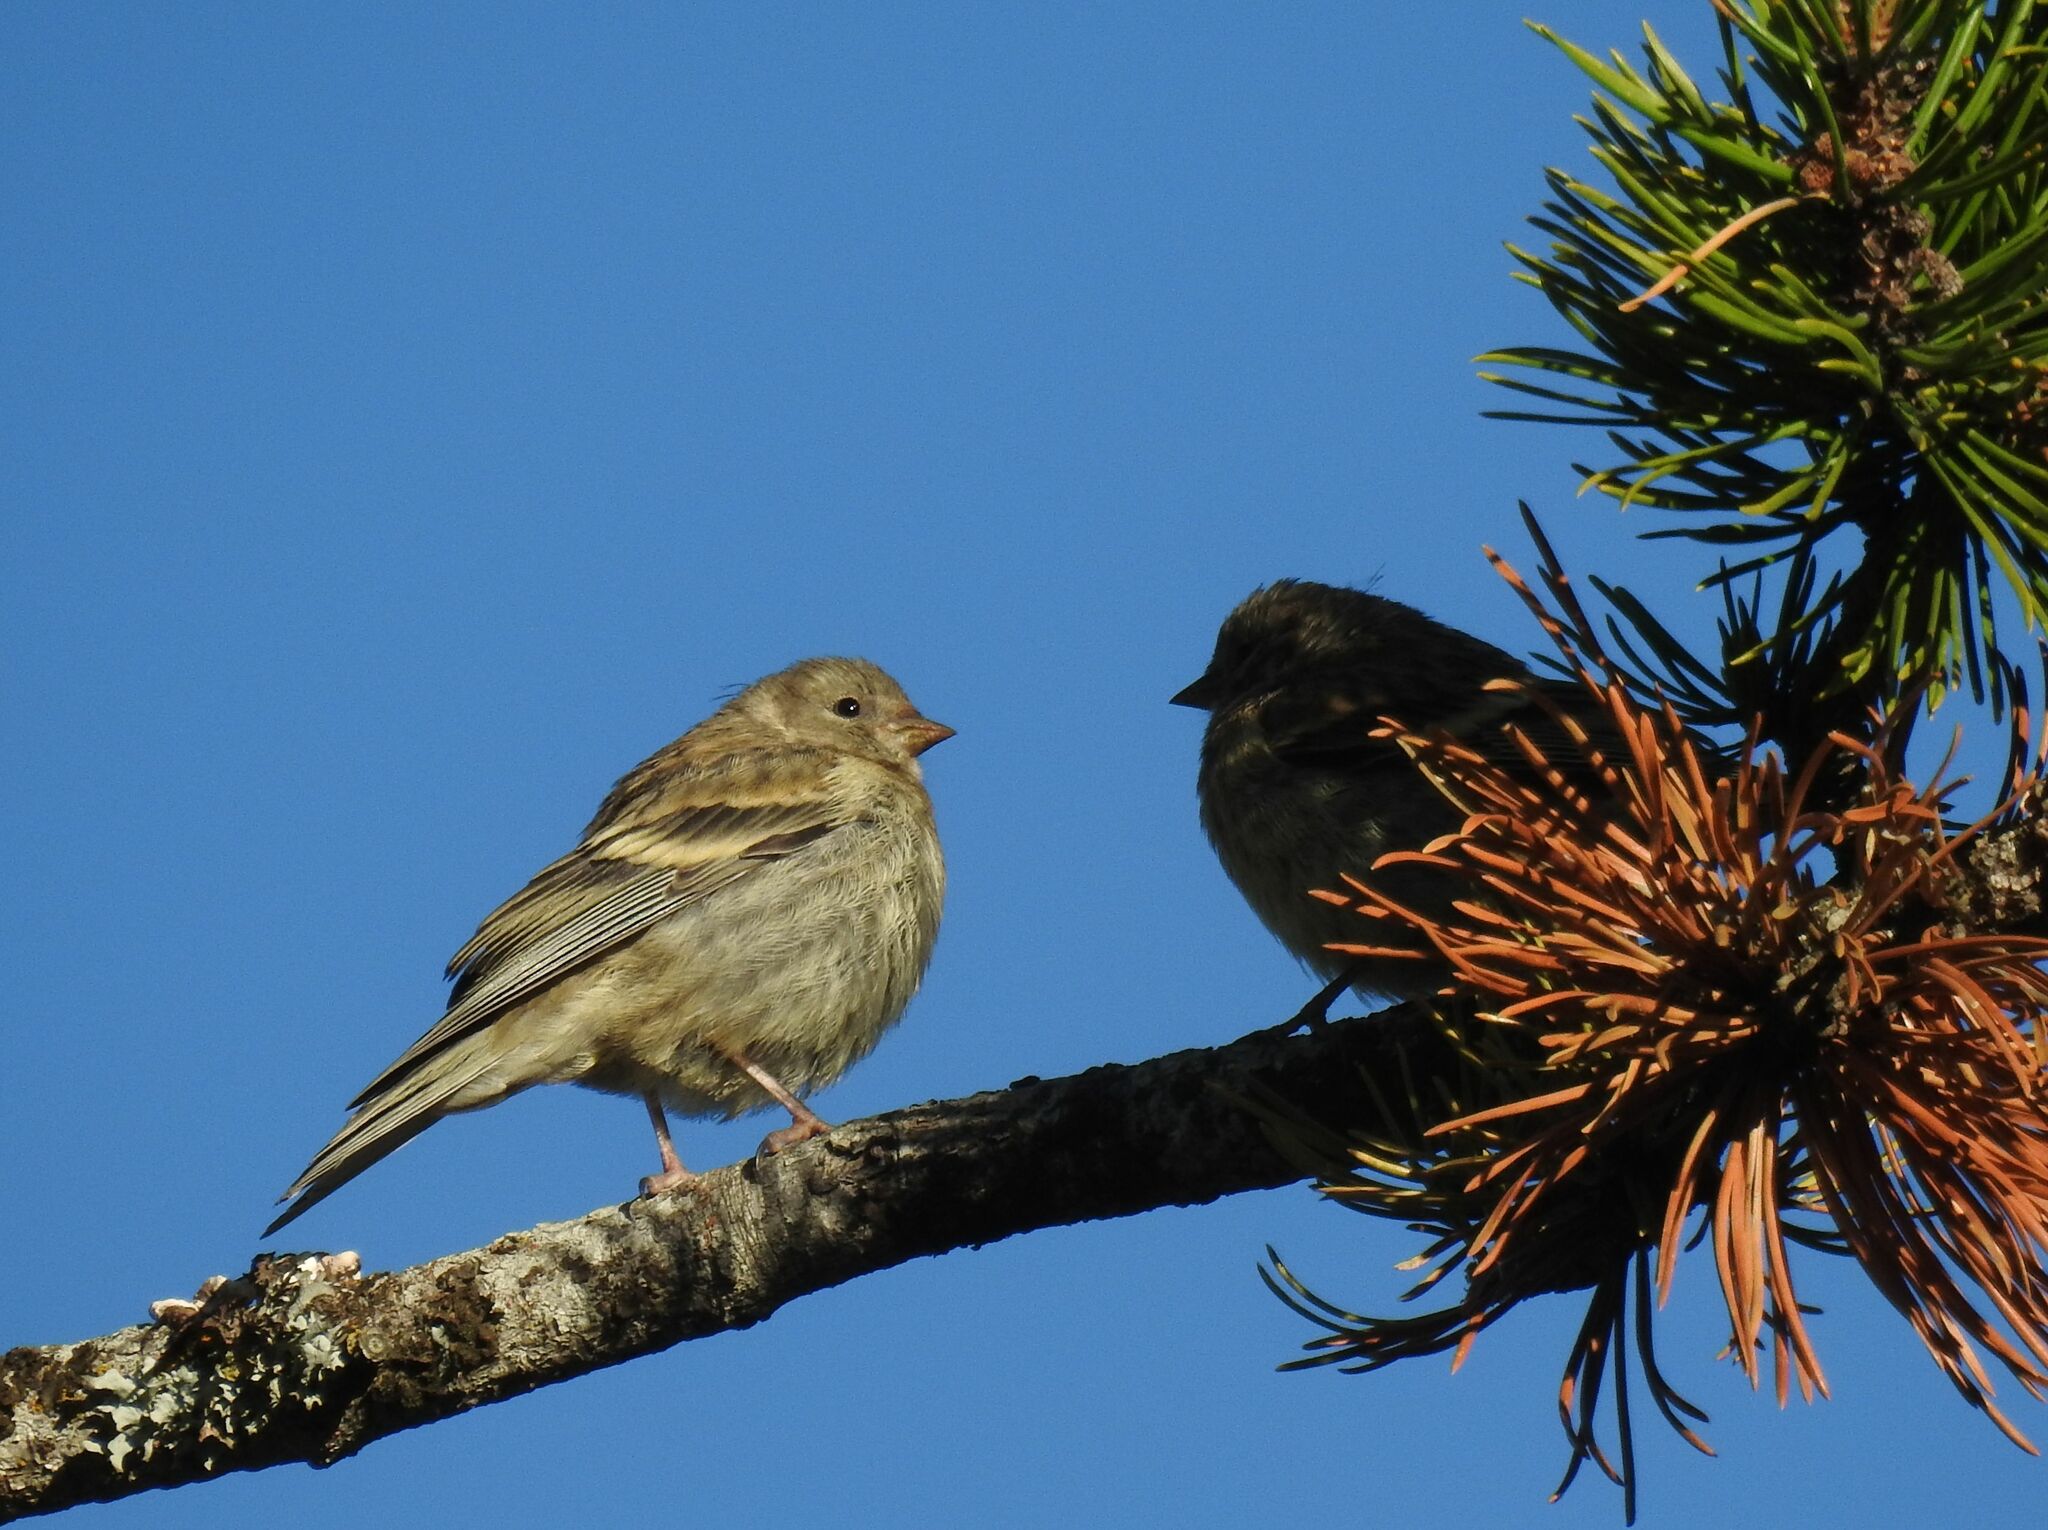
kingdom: Animalia
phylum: Chordata
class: Aves
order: Passeriformes
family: Fringillidae
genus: Carduelis
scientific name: Carduelis citrinella
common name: Citril finch
